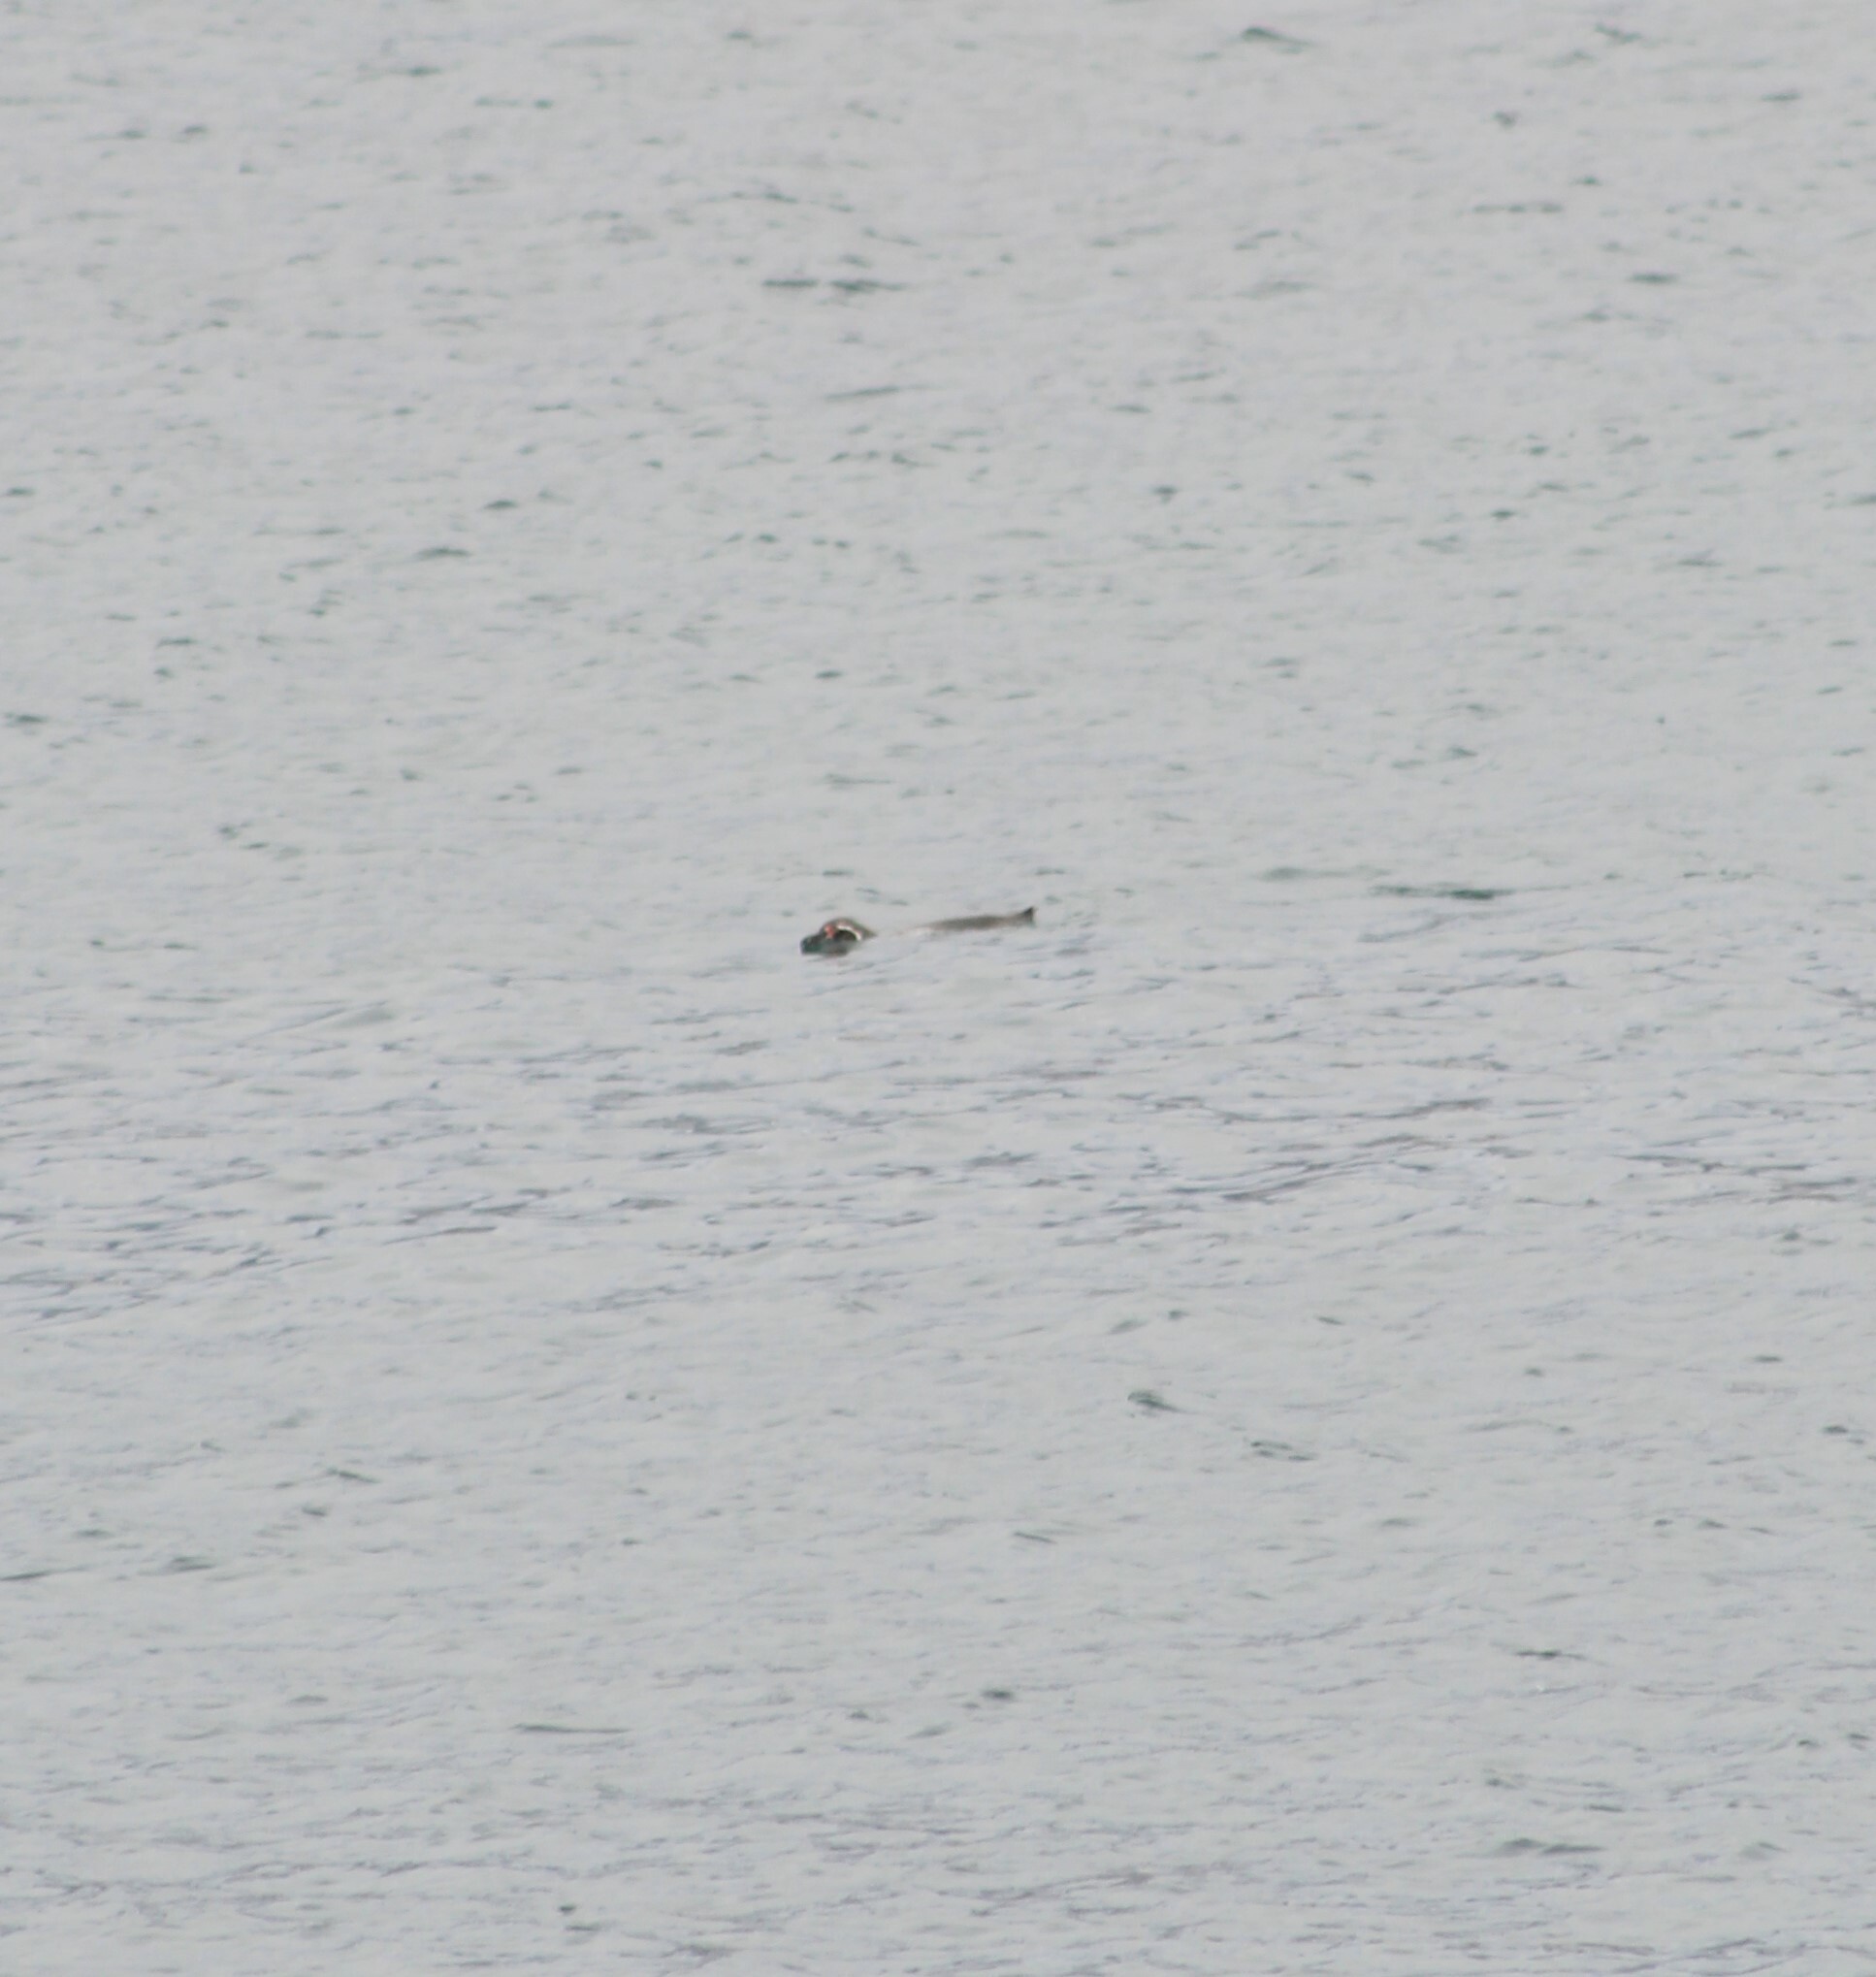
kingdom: Animalia
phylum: Chordata
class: Aves
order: Sphenisciformes
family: Spheniscidae
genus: Spheniscus
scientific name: Spheniscus humboldti
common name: Humboldt penguin
